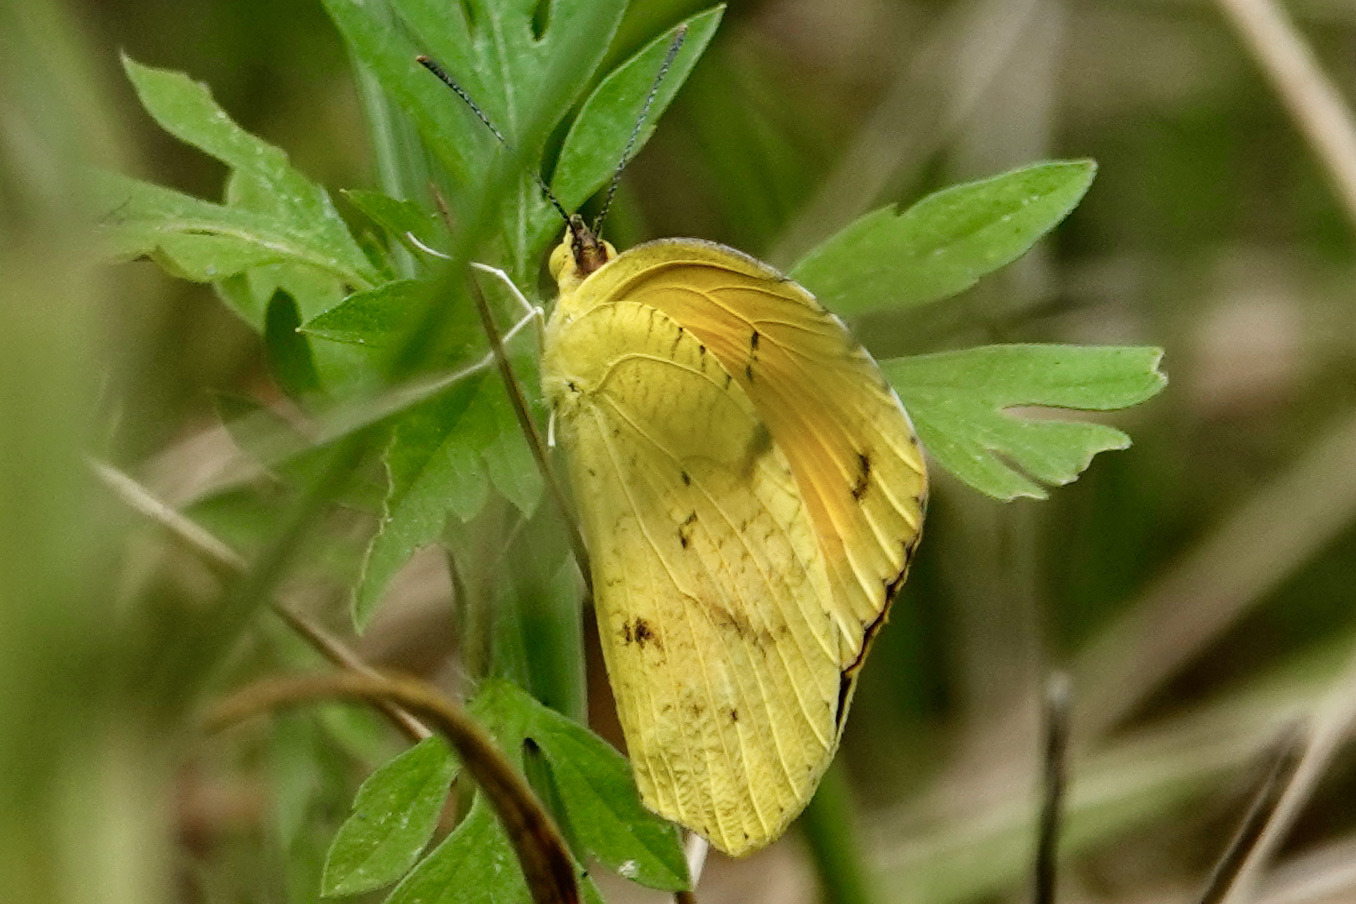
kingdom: Animalia
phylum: Arthropoda
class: Insecta
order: Lepidoptera
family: Pieridae
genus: Abaeis
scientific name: Abaeis nicippe
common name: Sleepy orange
